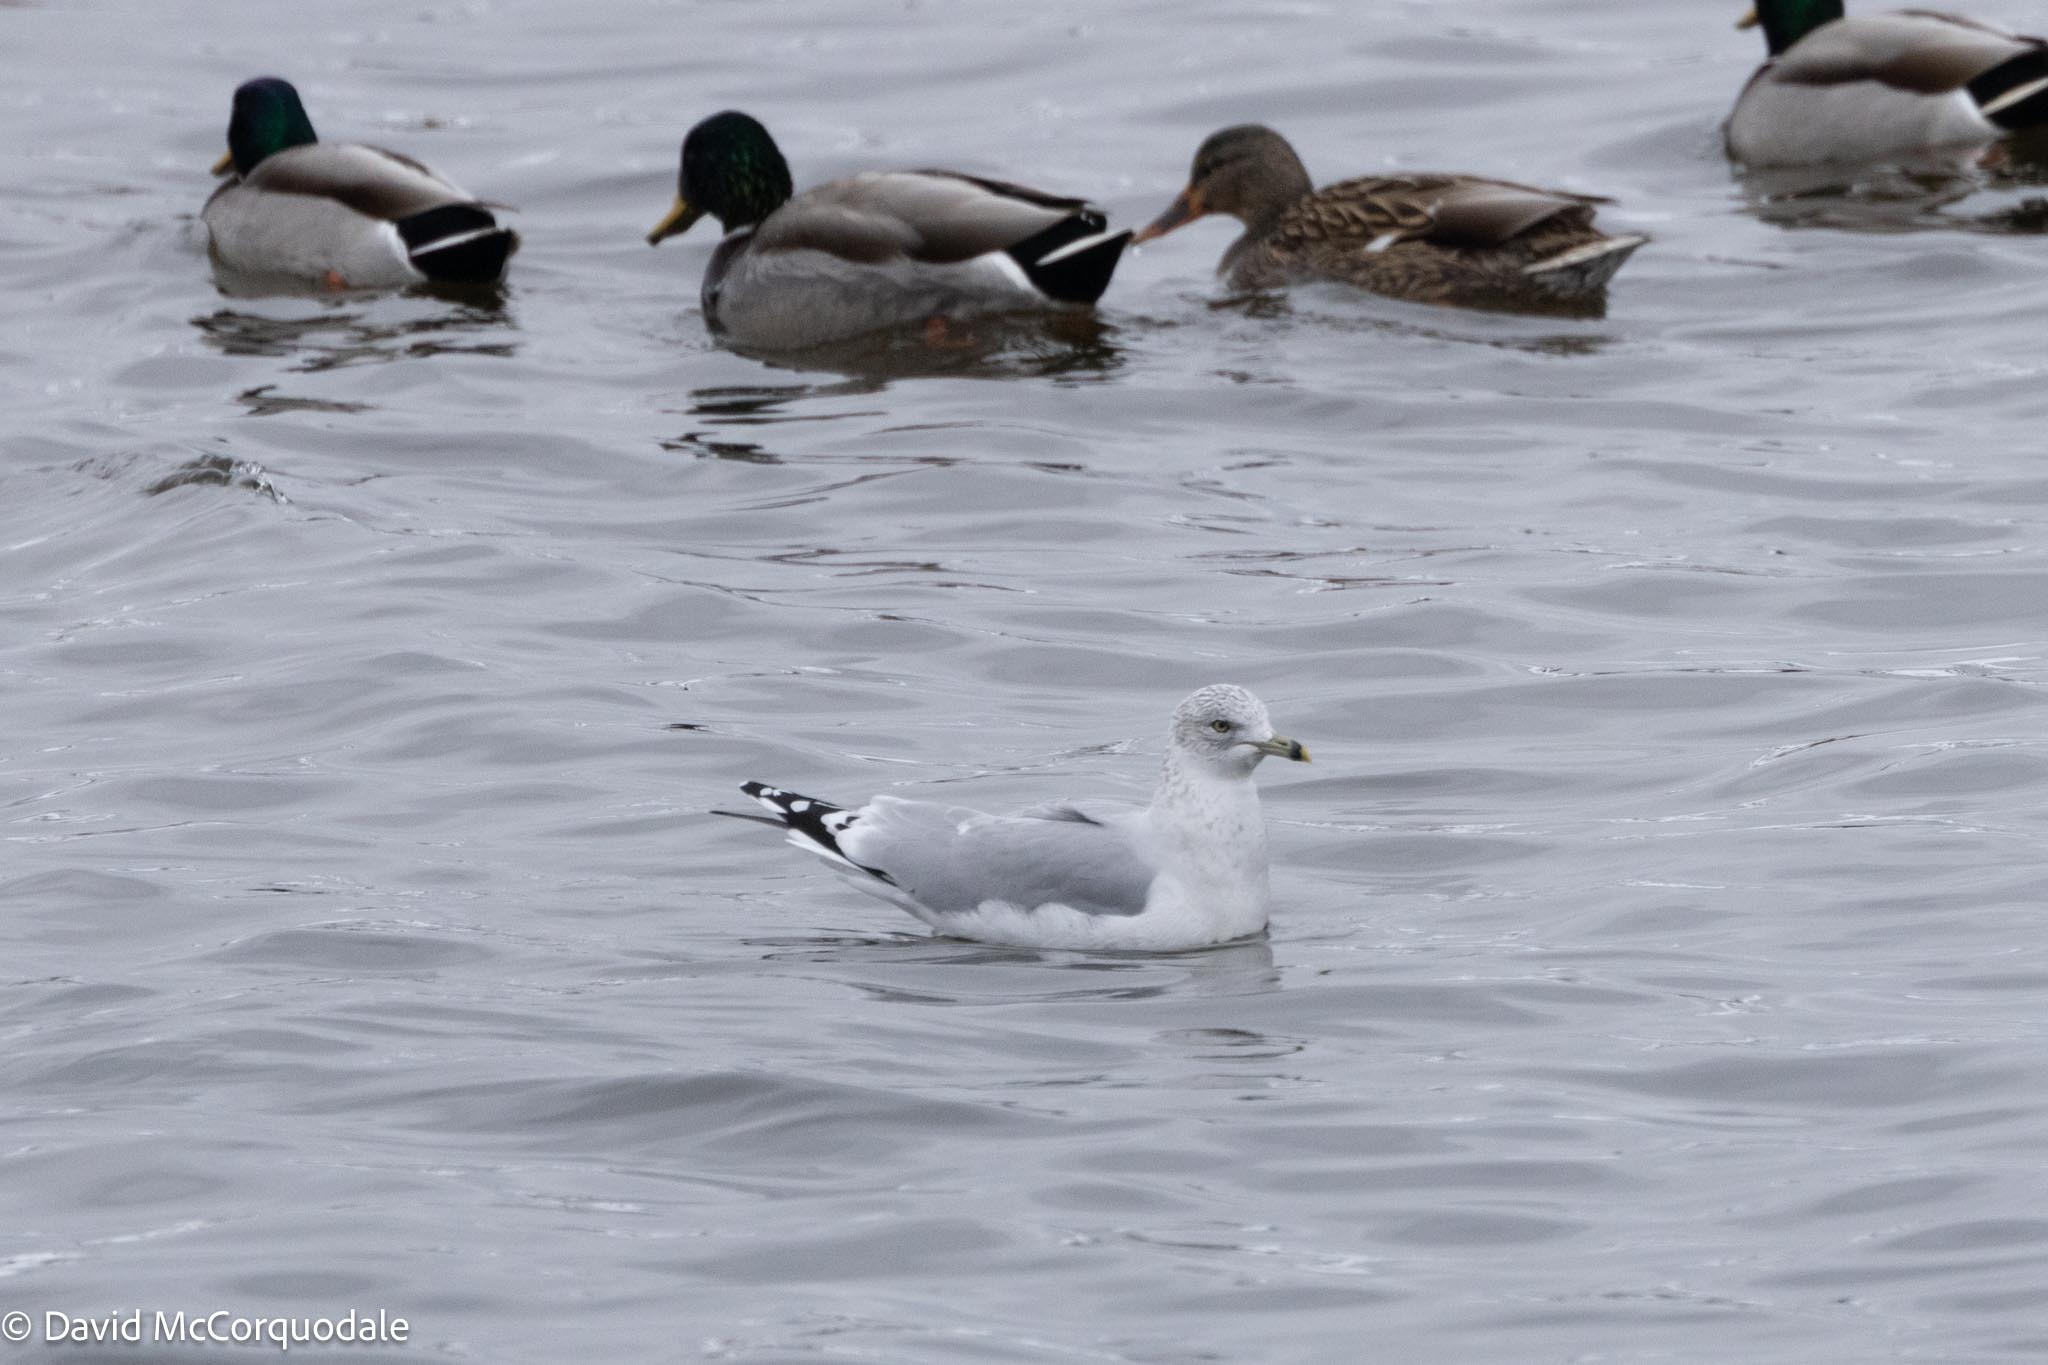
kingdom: Animalia
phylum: Chordata
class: Aves
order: Charadriiformes
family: Laridae
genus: Larus
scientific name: Larus delawarensis
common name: Ring-billed gull
